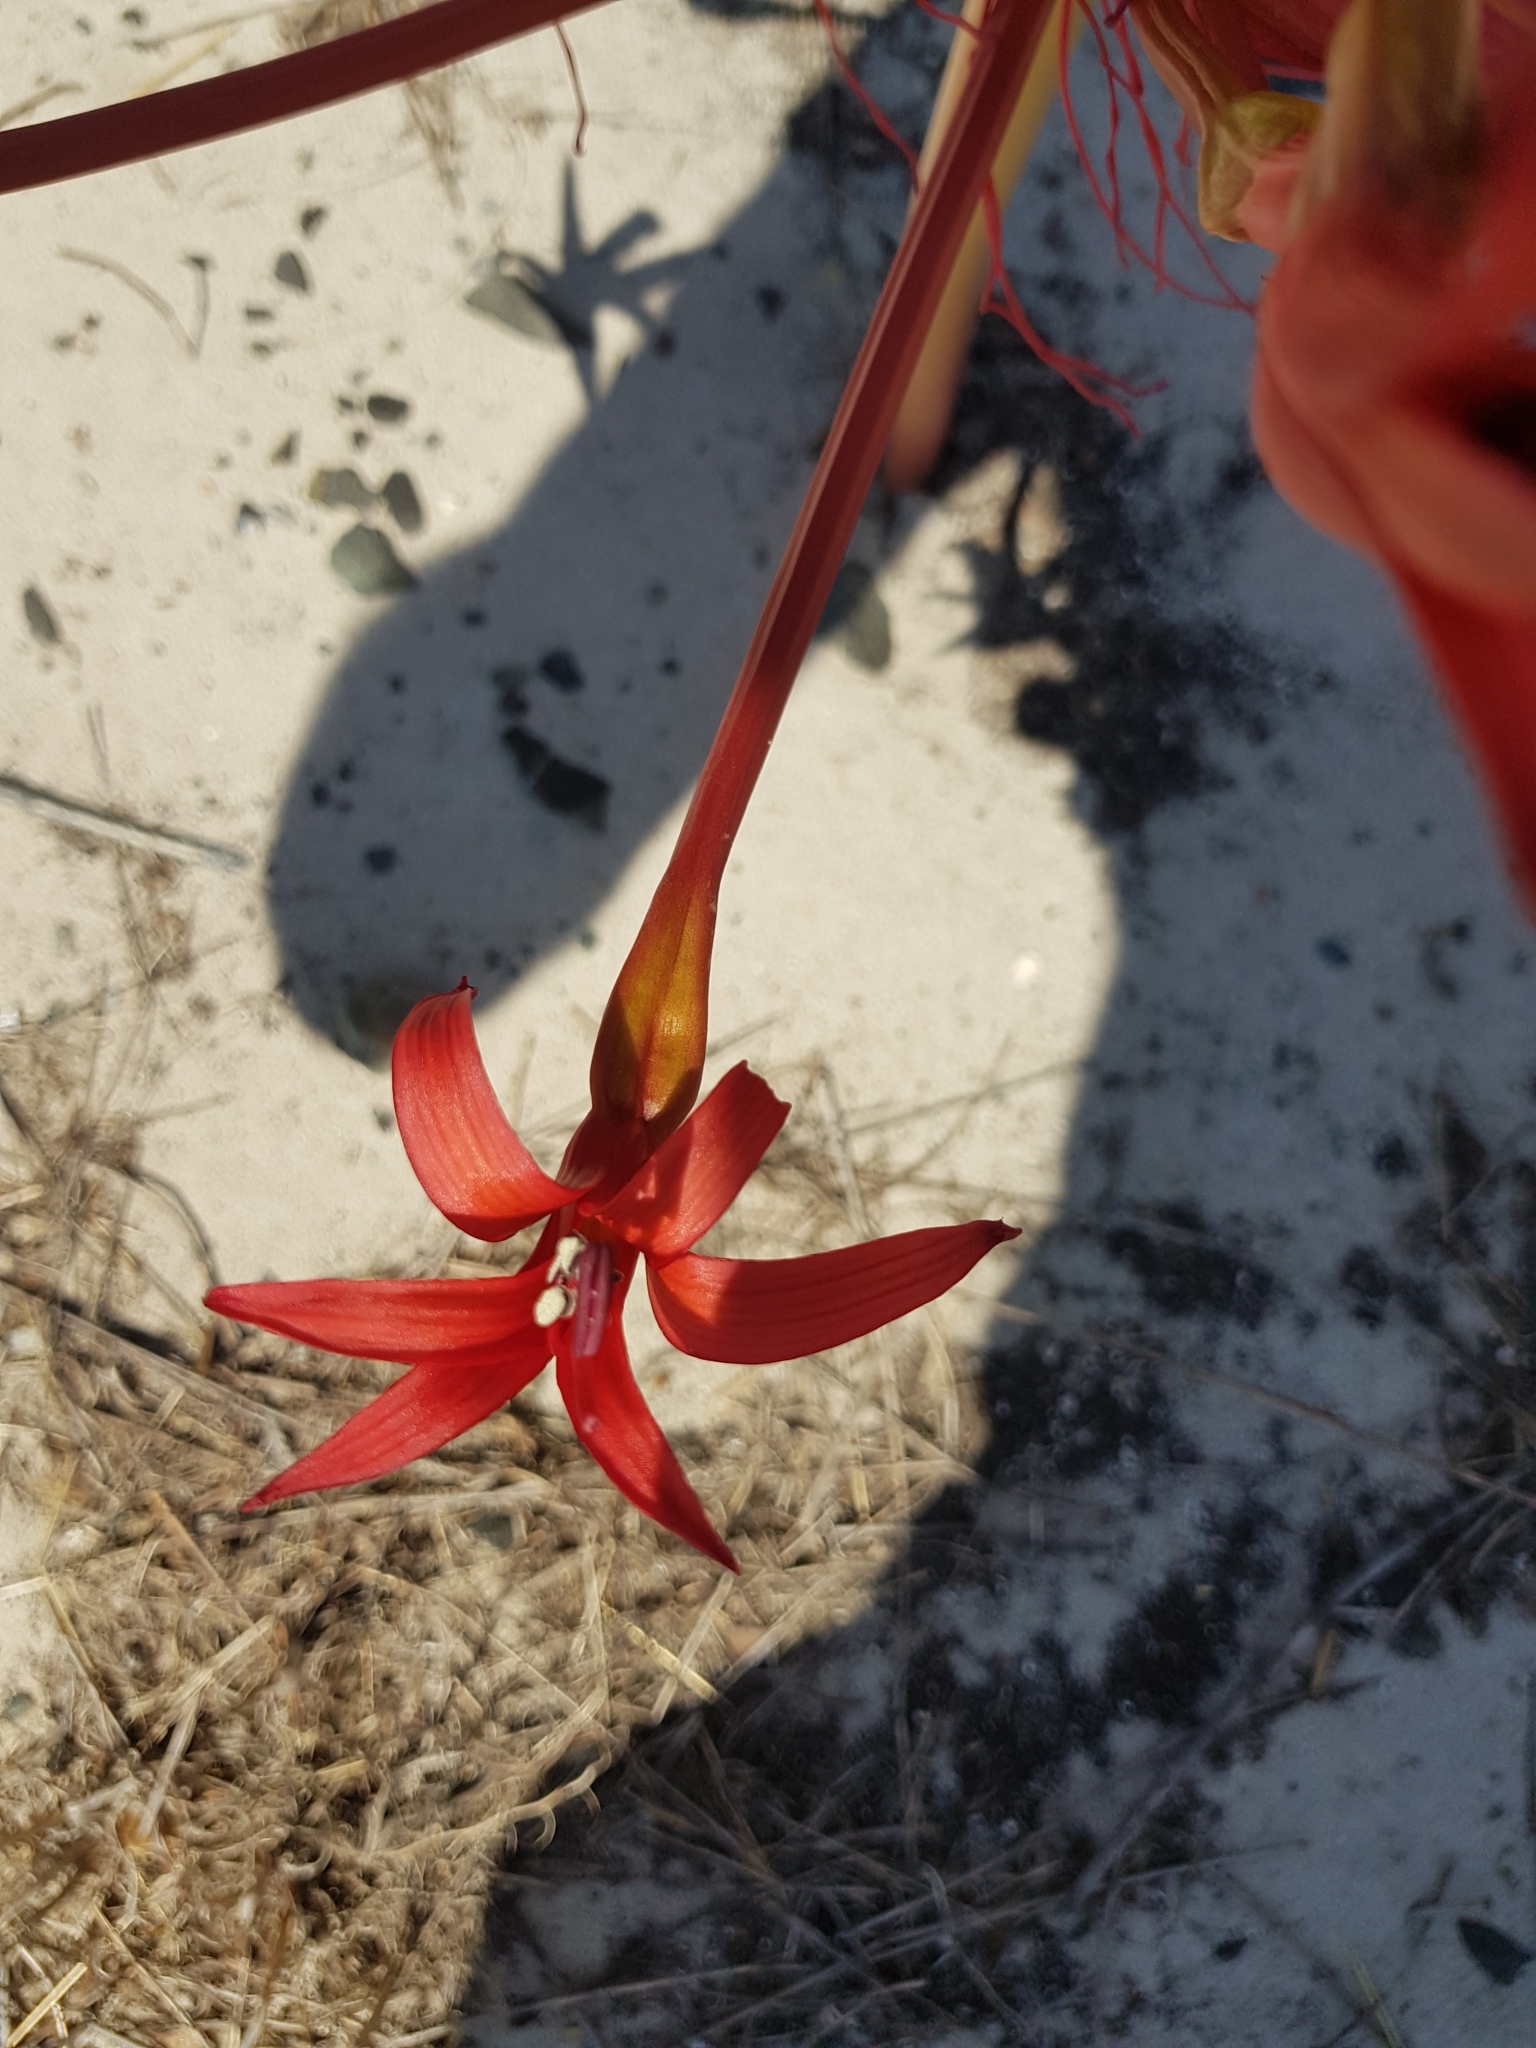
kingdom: Plantae
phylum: Tracheophyta
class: Liliopsida
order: Asparagales
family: Amaryllidaceae
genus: Brunsvigia
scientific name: Brunsvigia orientalis
